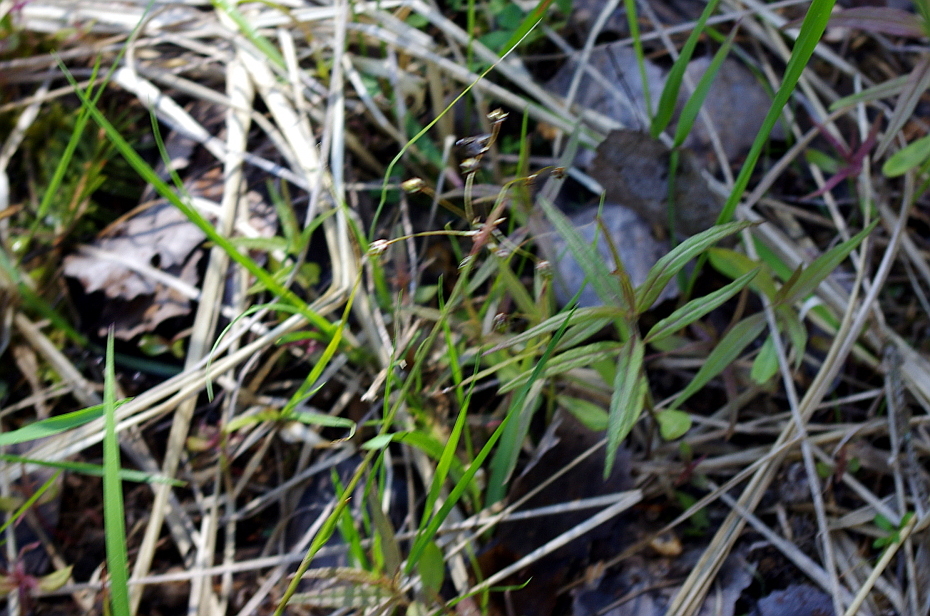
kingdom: Plantae
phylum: Tracheophyta
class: Liliopsida
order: Poales
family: Juncaceae
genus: Luzula
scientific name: Luzula pilosa
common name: Hairy wood-rush
